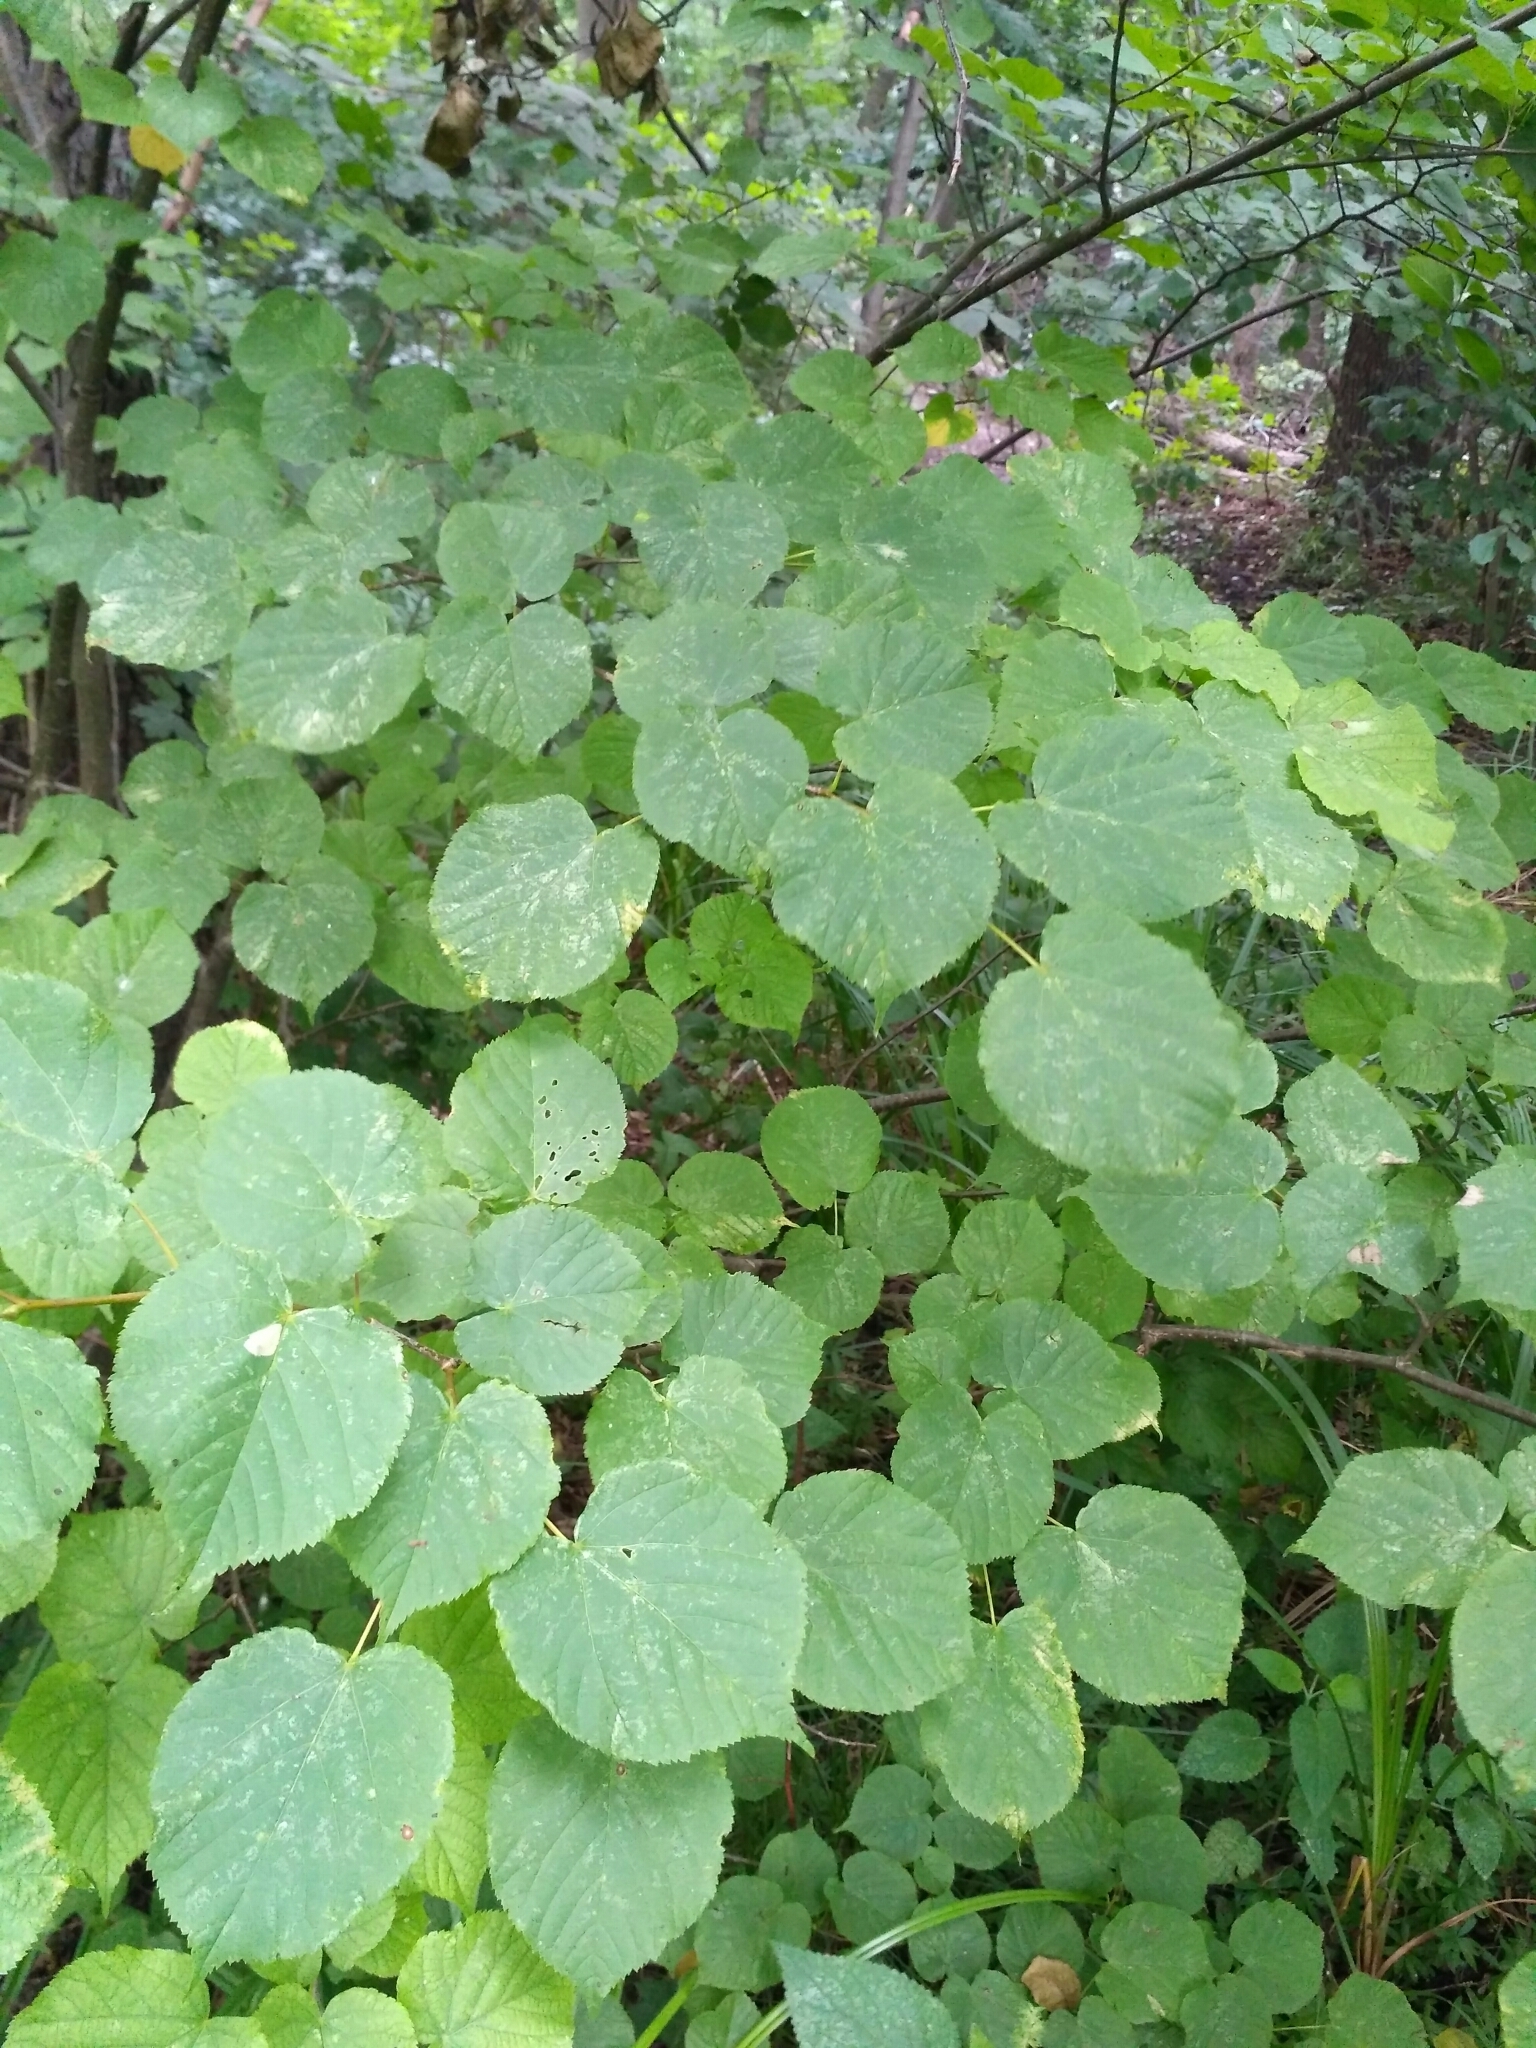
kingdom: Plantae
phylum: Tracheophyta
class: Magnoliopsida
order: Malvales
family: Malvaceae
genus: Tilia
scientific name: Tilia cordata
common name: Small-leaved lime
